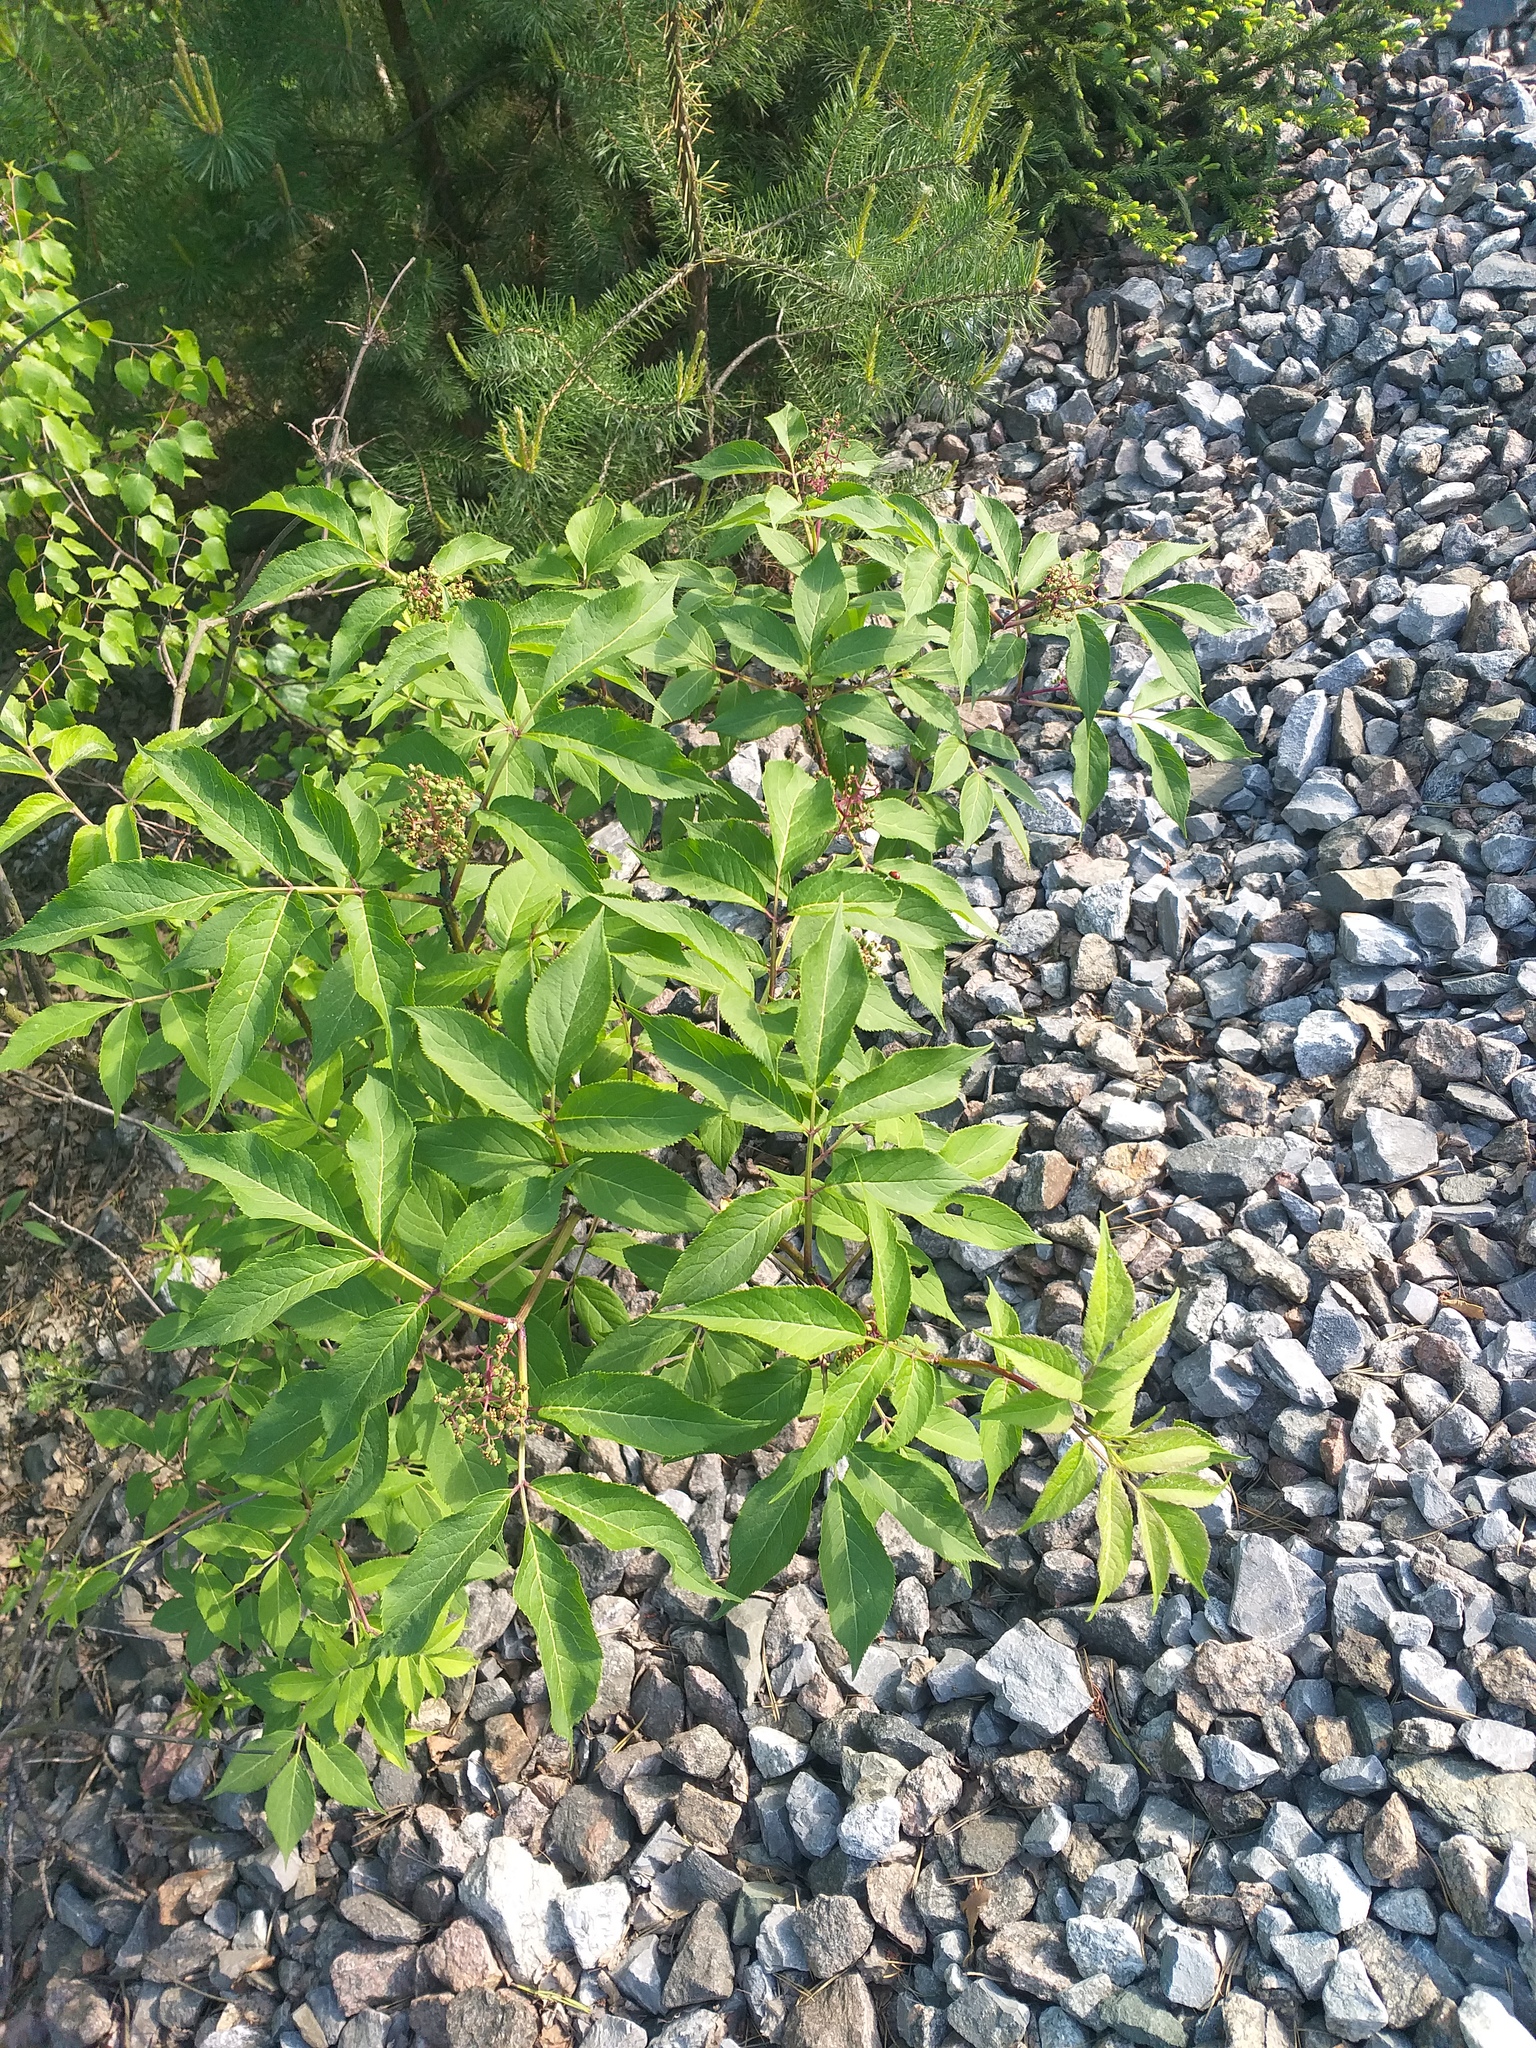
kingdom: Plantae
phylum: Tracheophyta
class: Magnoliopsida
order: Dipsacales
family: Viburnaceae
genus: Sambucus
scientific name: Sambucus racemosa
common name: Red-berried elder
